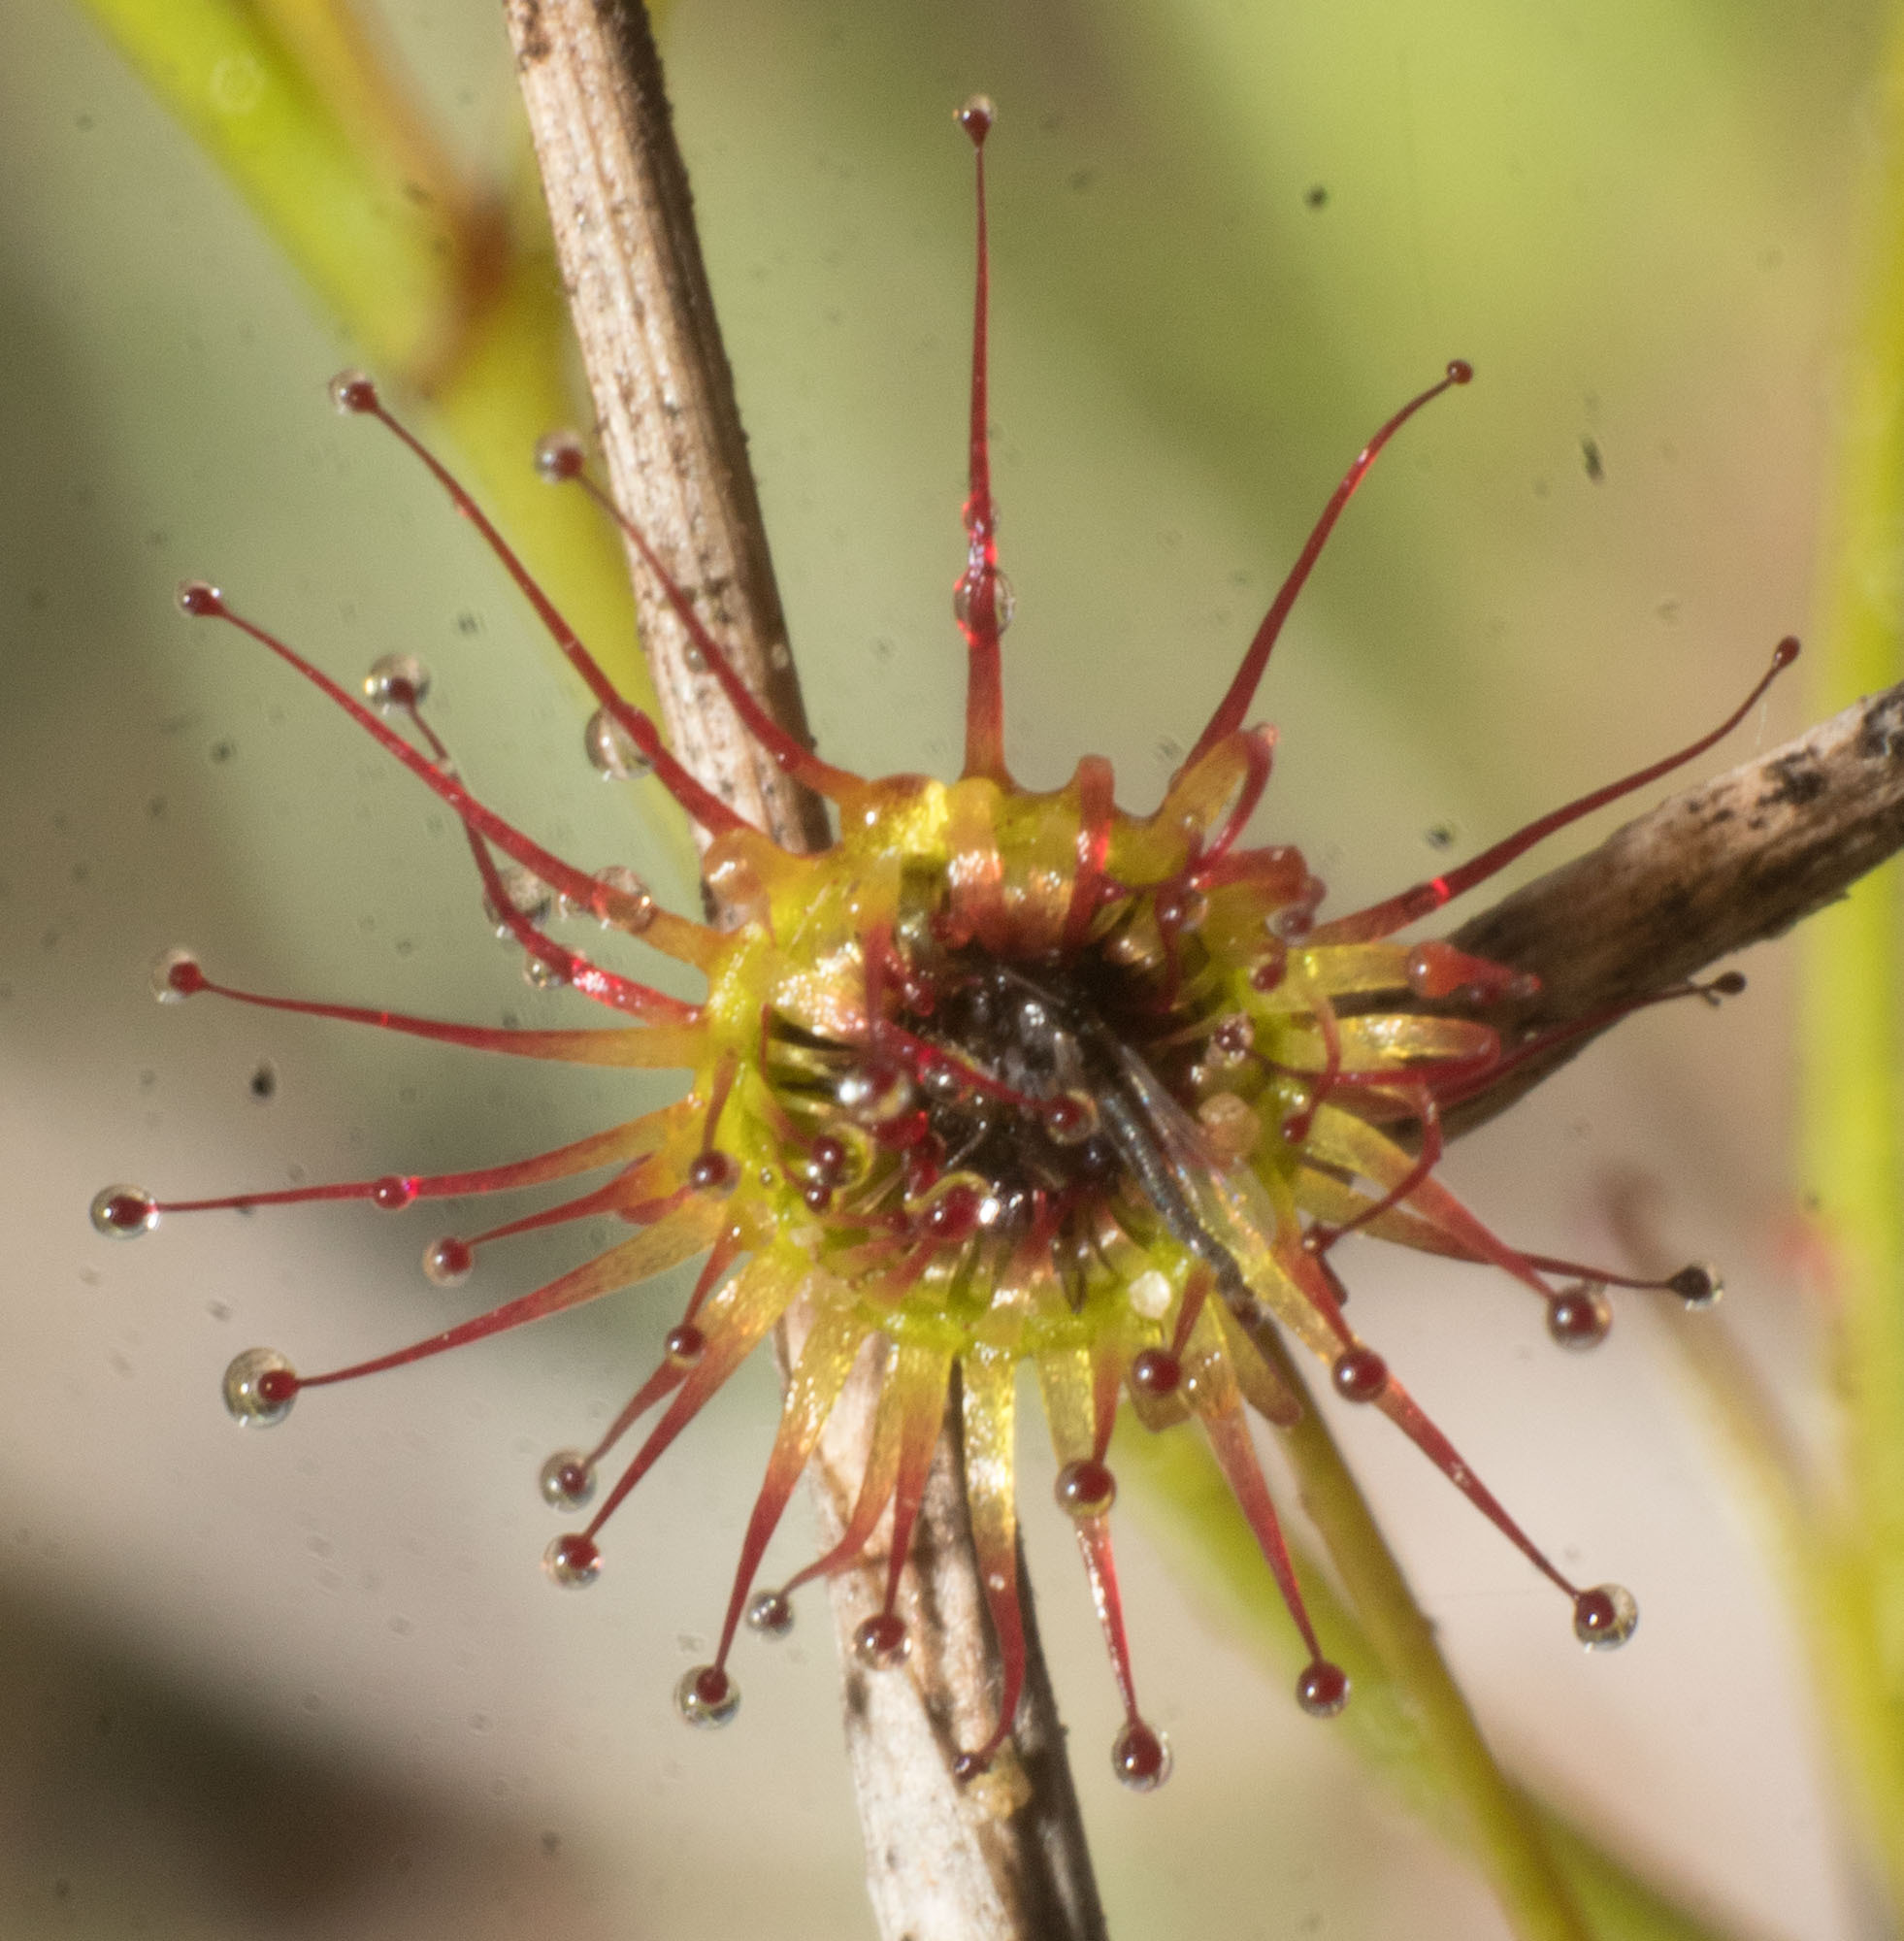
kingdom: Plantae
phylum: Tracheophyta
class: Magnoliopsida
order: Caryophyllales
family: Droseraceae
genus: Drosera
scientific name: Drosera macrantha
